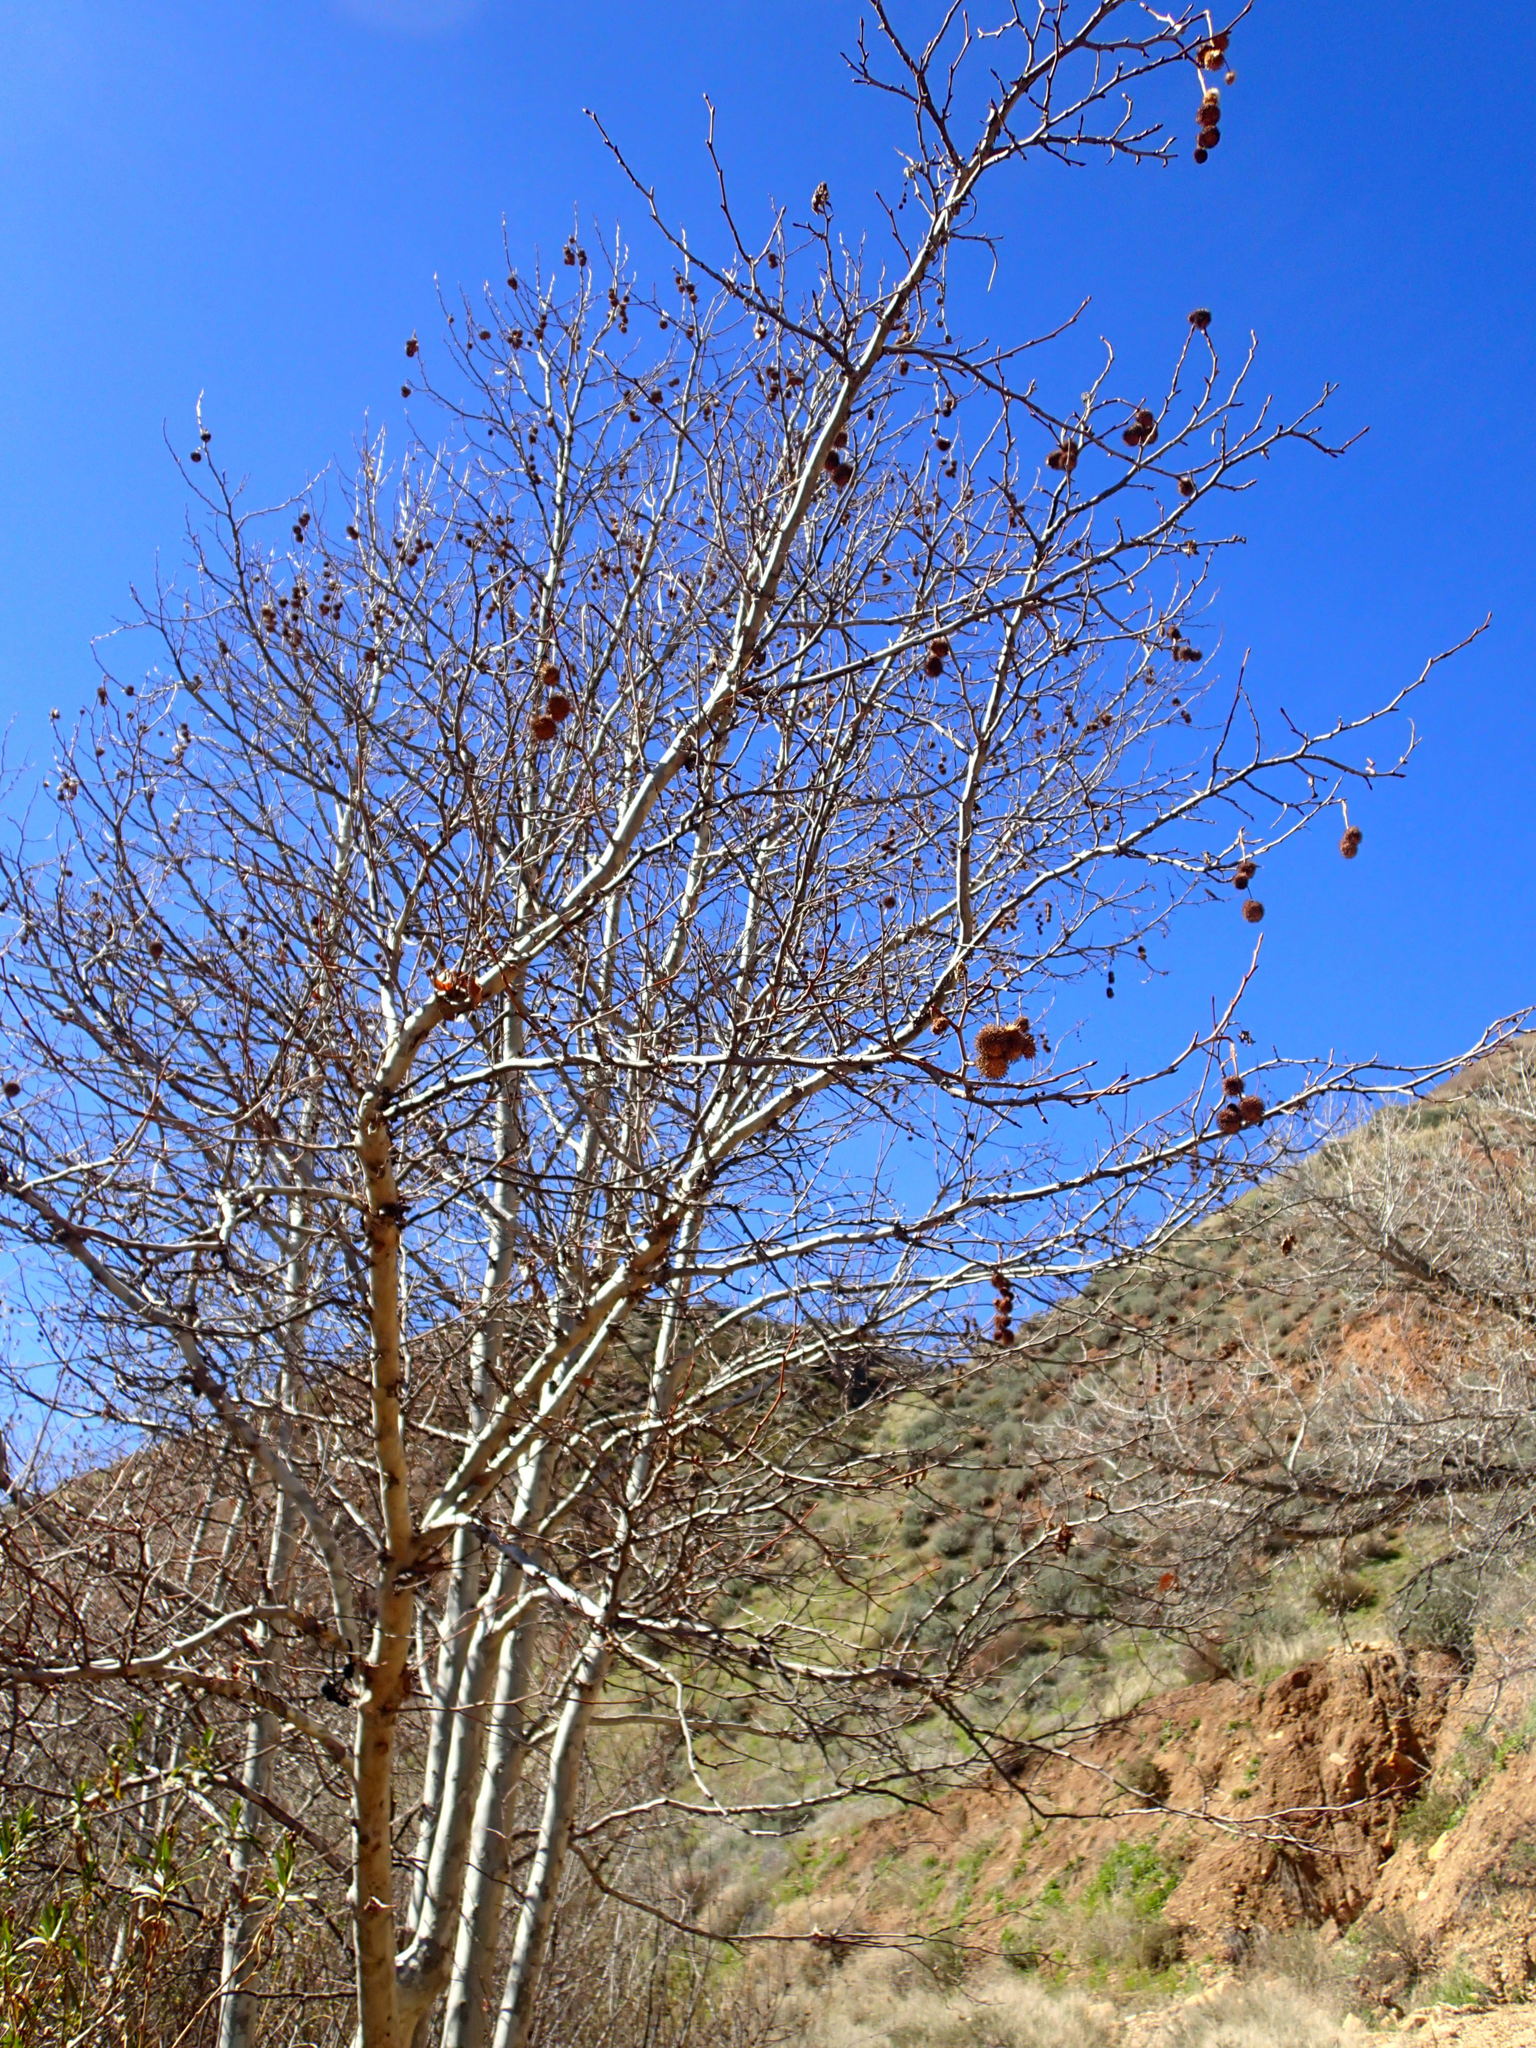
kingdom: Plantae
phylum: Tracheophyta
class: Magnoliopsida
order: Proteales
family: Platanaceae
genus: Platanus
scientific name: Platanus racemosa
